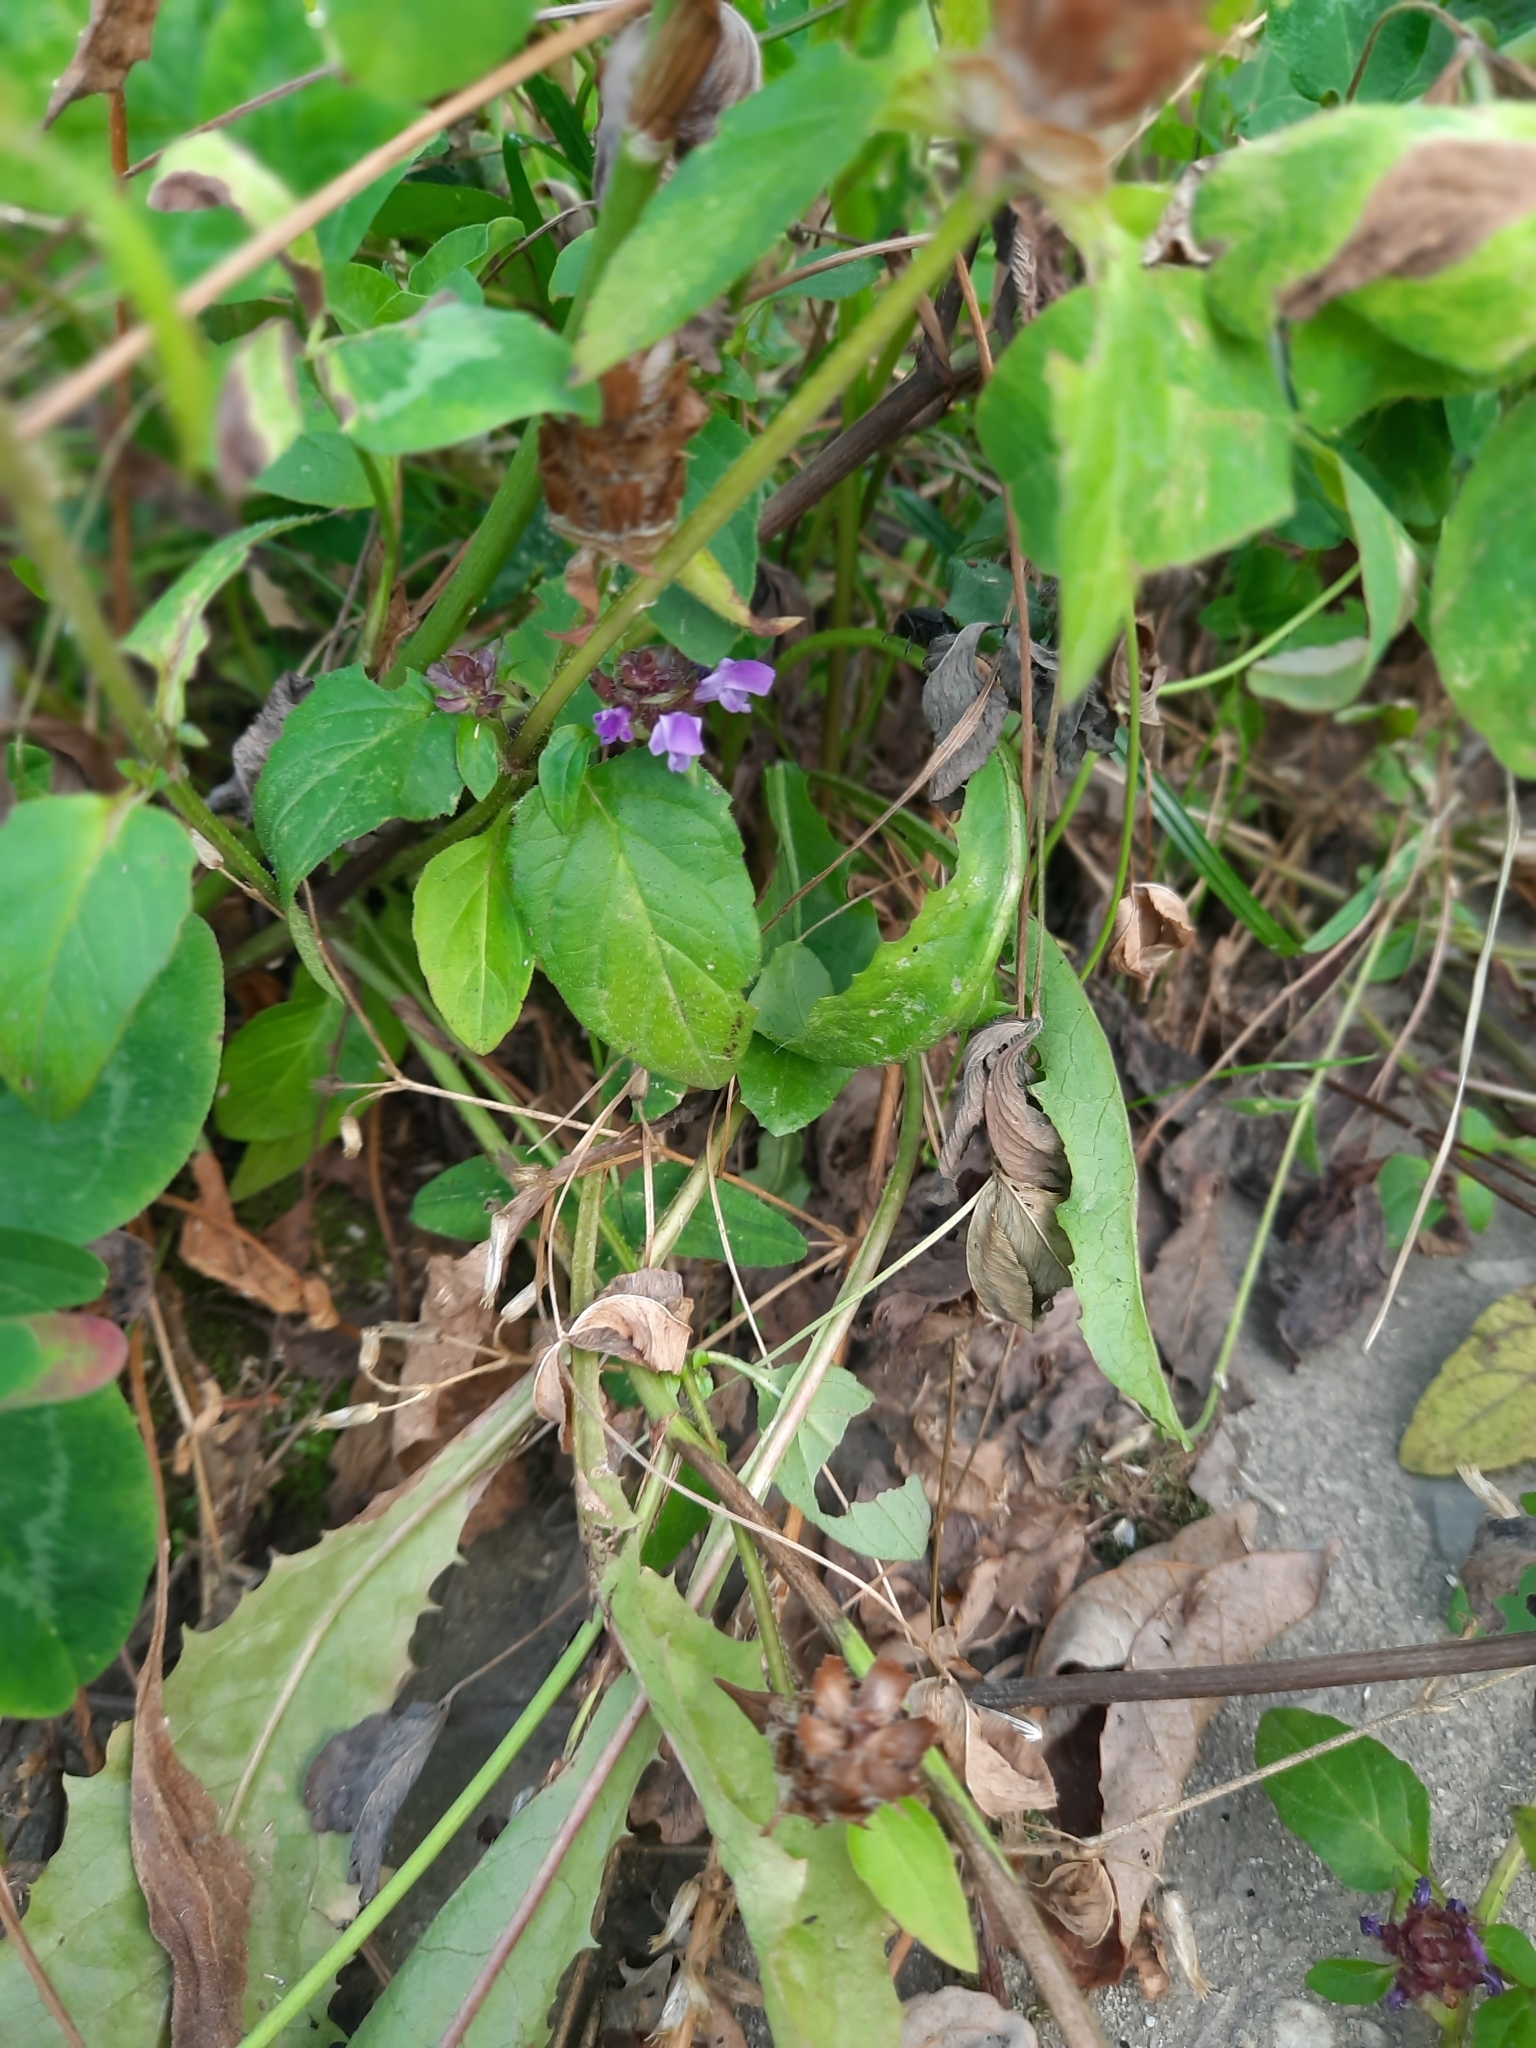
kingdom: Plantae
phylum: Tracheophyta
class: Magnoliopsida
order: Lamiales
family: Lamiaceae
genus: Prunella
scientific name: Prunella vulgaris
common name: Heal-all
